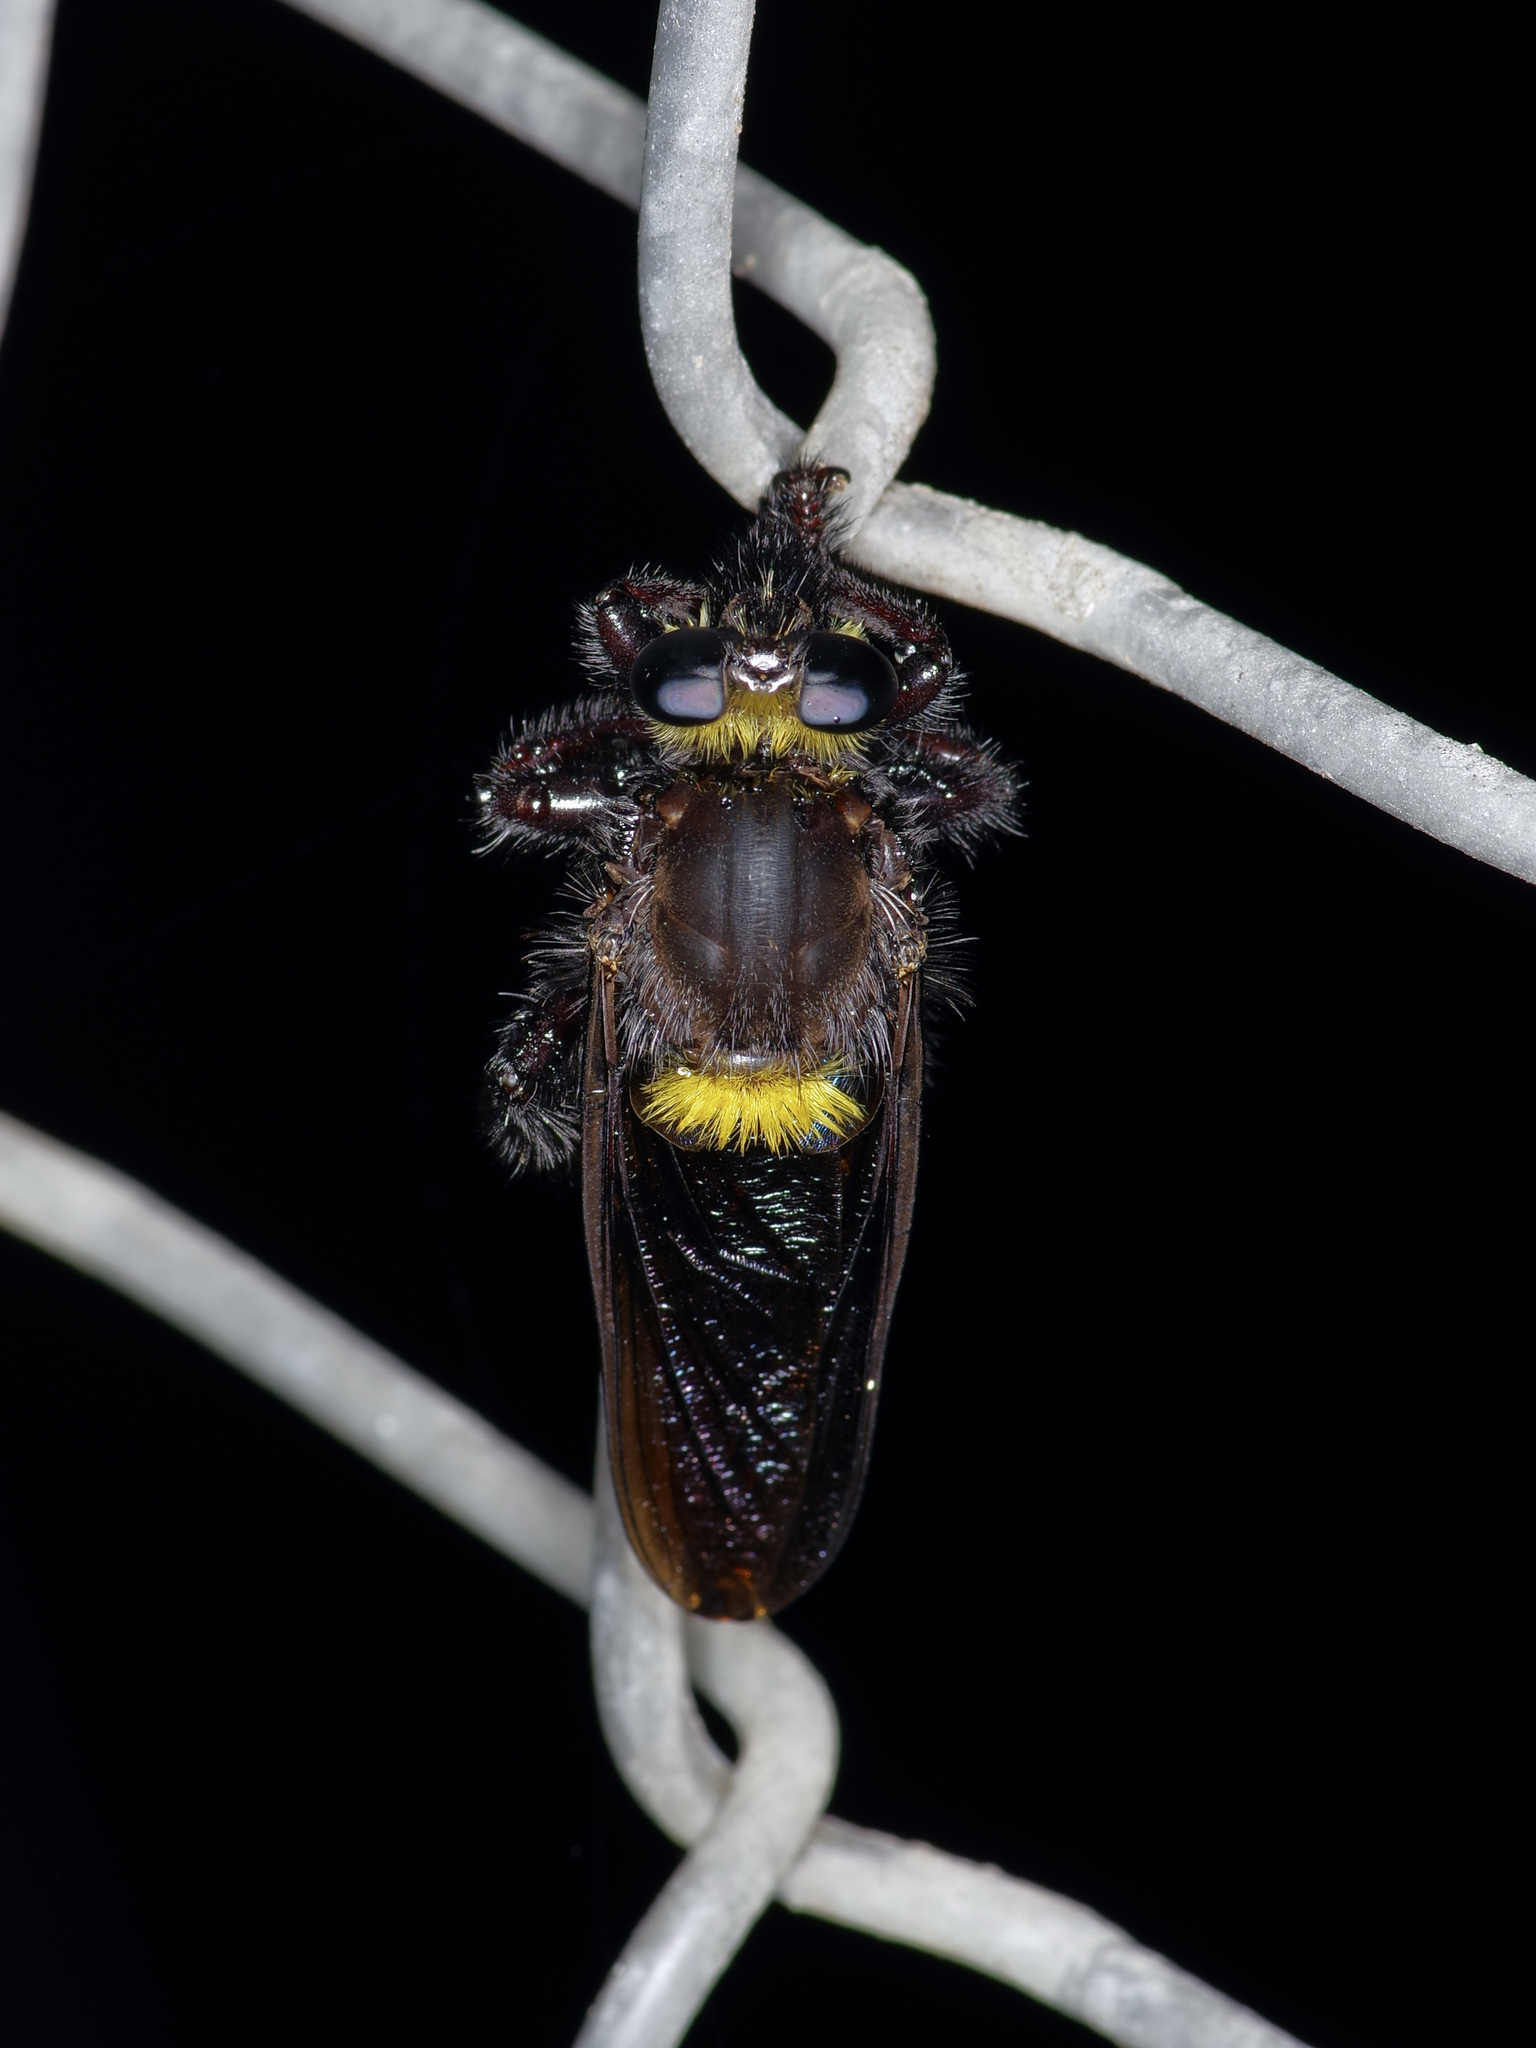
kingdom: Animalia
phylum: Arthropoda
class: Insecta
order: Diptera
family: Asilidae
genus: Mallophora
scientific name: Mallophora leschenaultii
